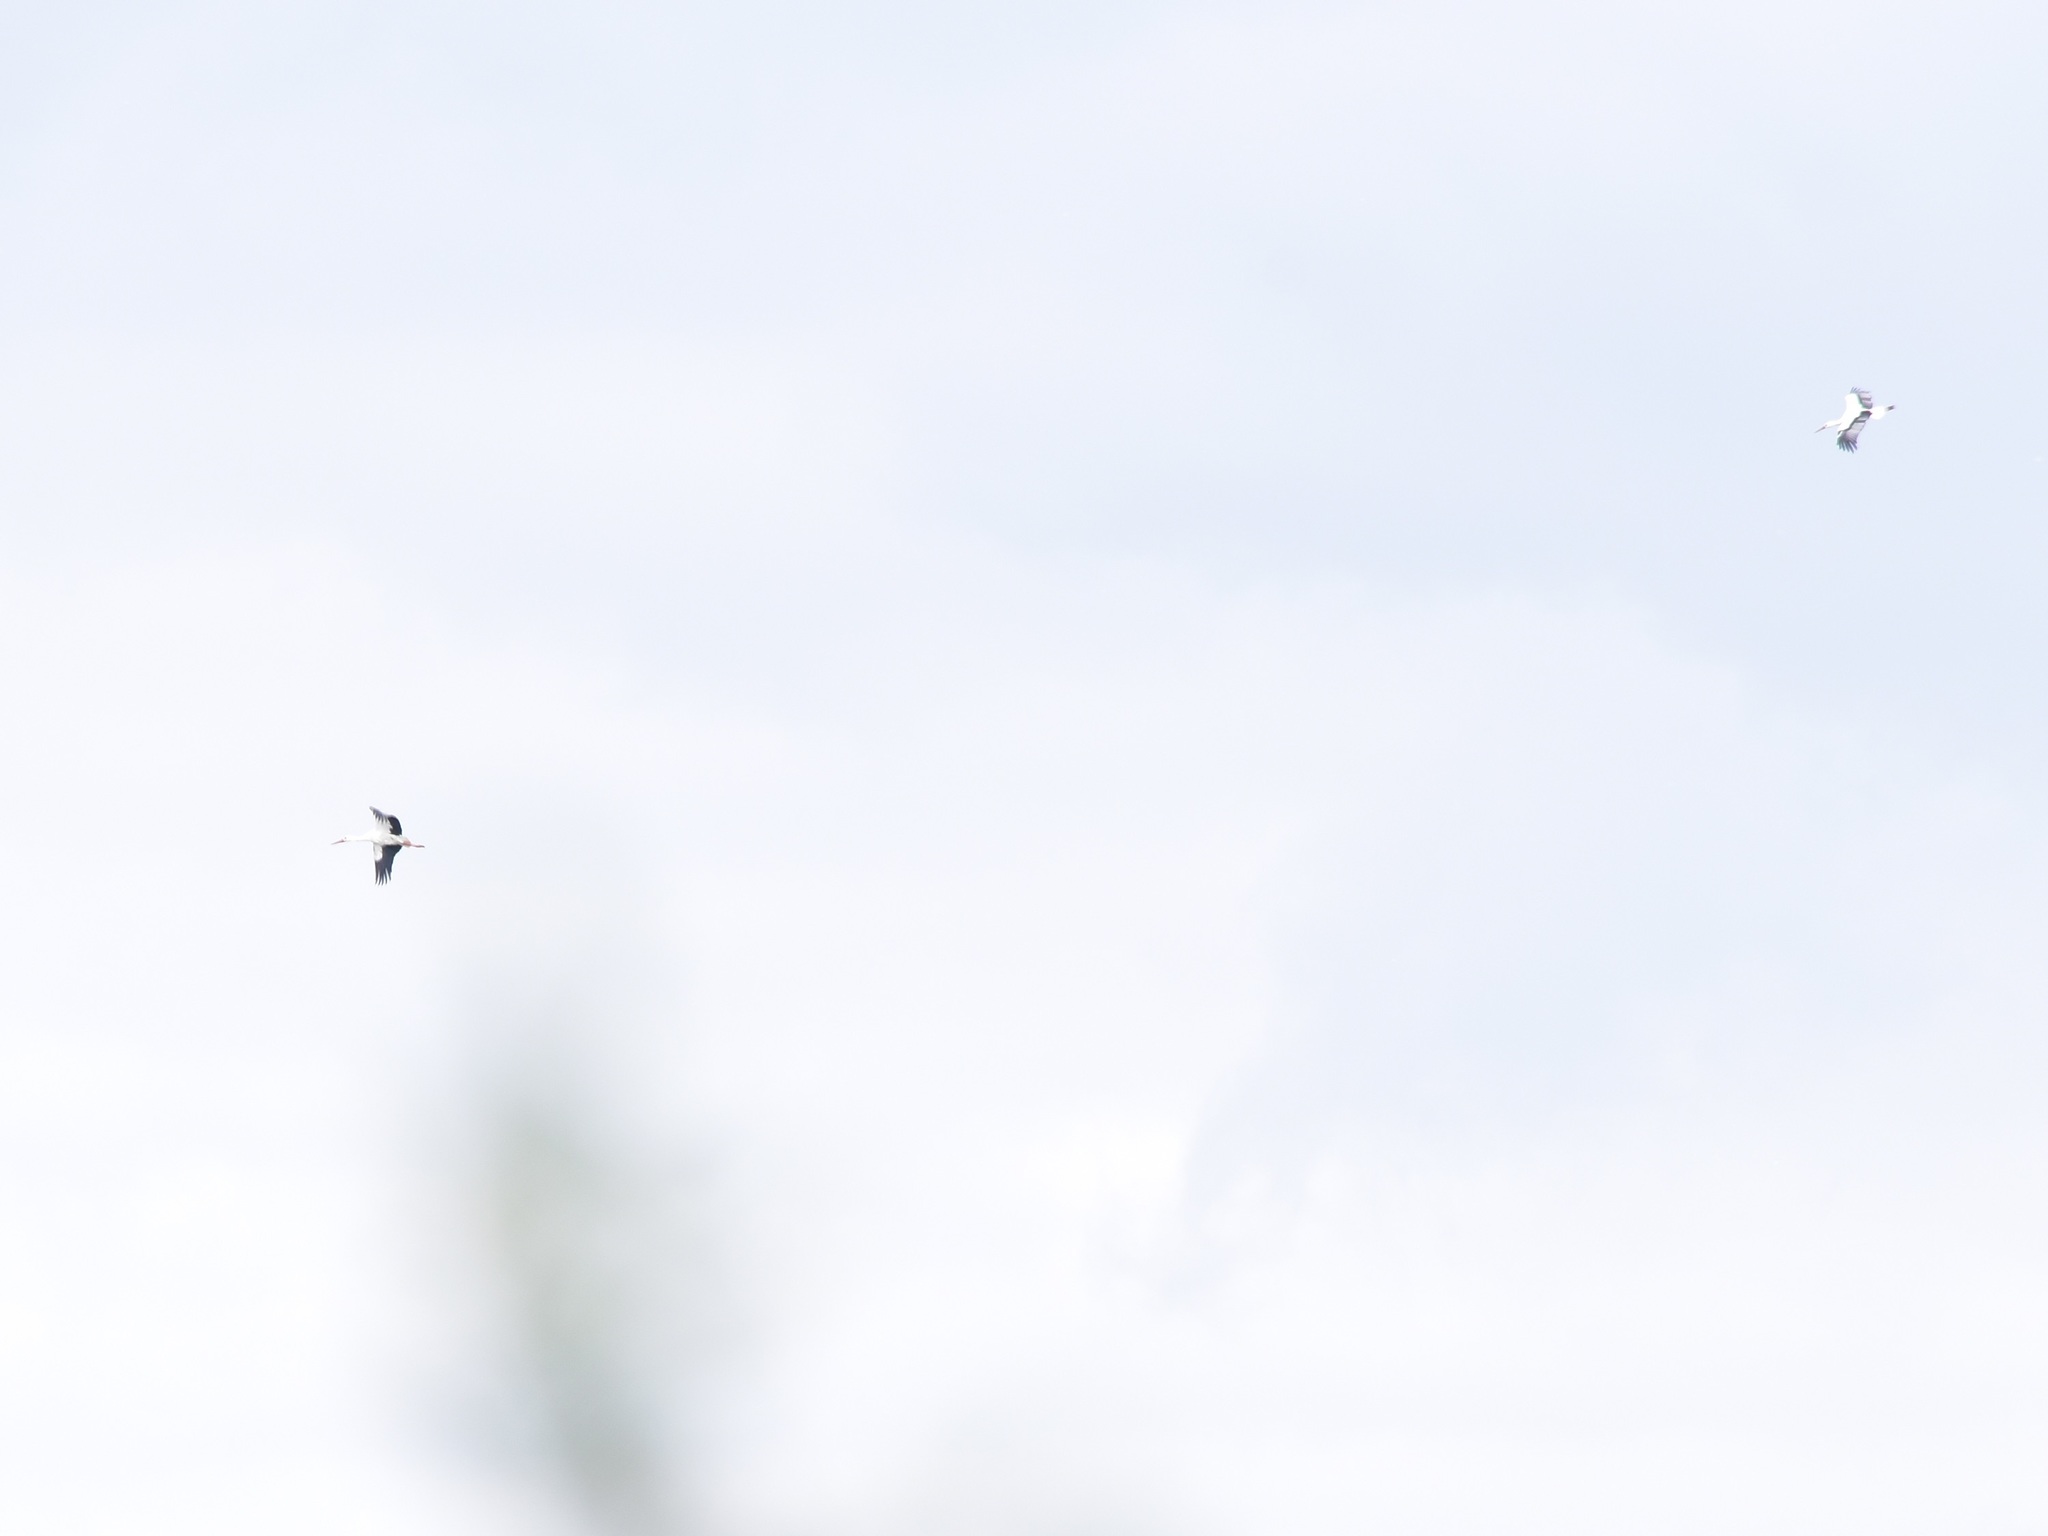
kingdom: Animalia
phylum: Chordata
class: Aves
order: Ciconiiformes
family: Ciconiidae
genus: Ciconia
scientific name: Ciconia ciconia
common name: White stork
